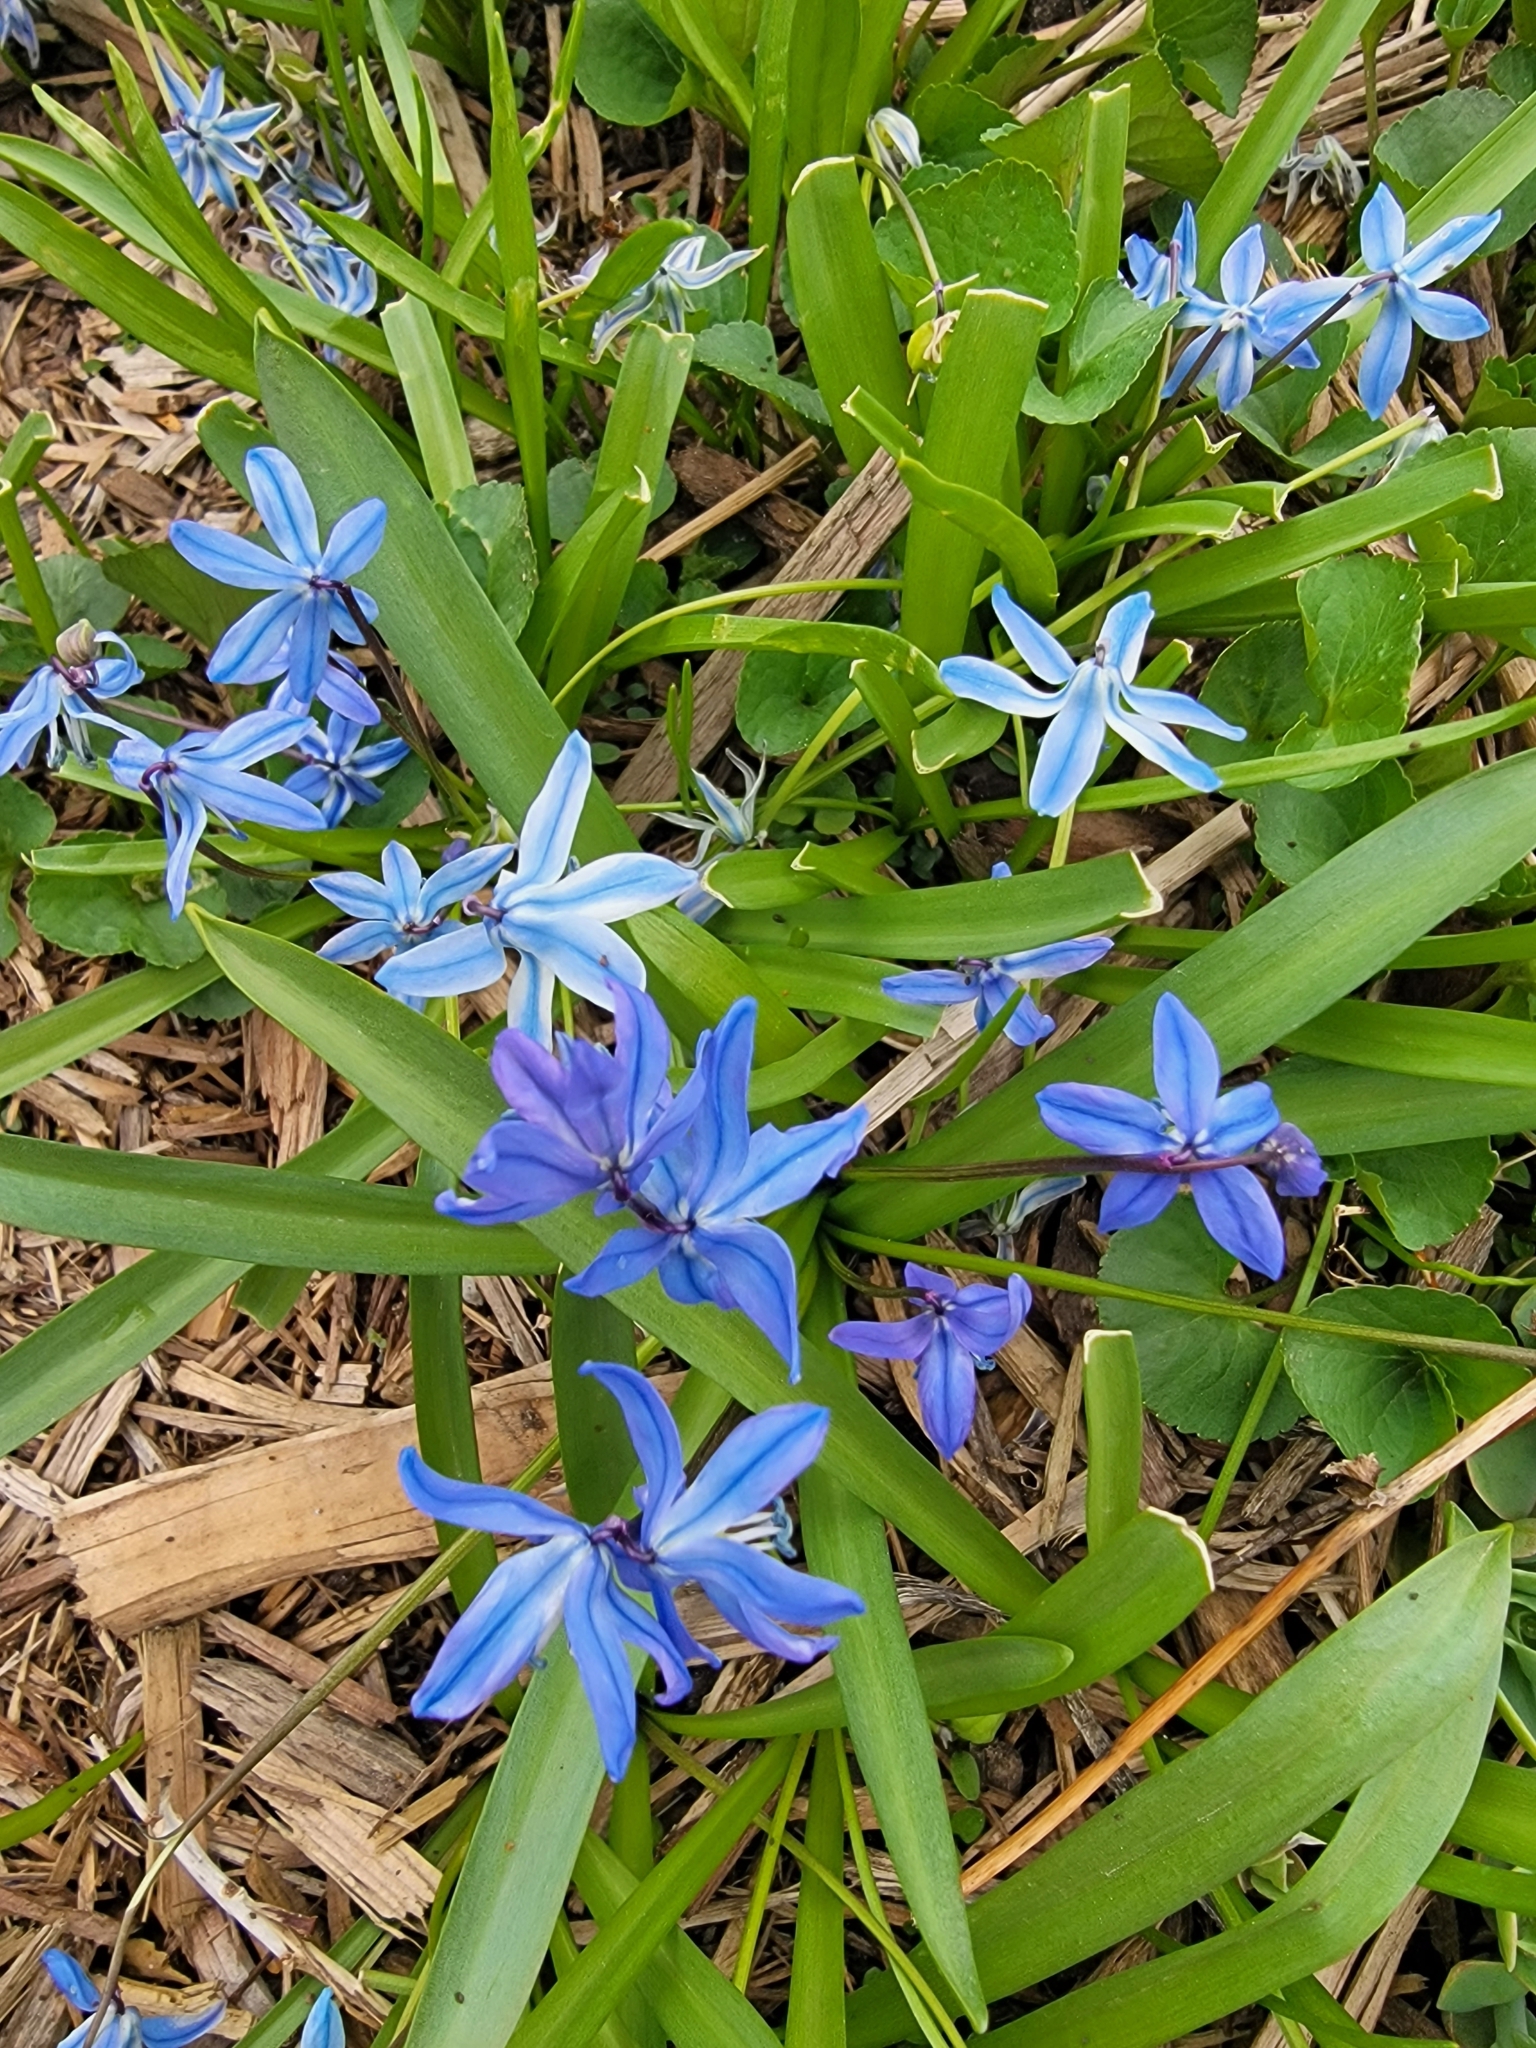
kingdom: Plantae
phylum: Tracheophyta
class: Liliopsida
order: Asparagales
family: Asparagaceae
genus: Scilla
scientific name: Scilla siberica
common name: Siberian squill
